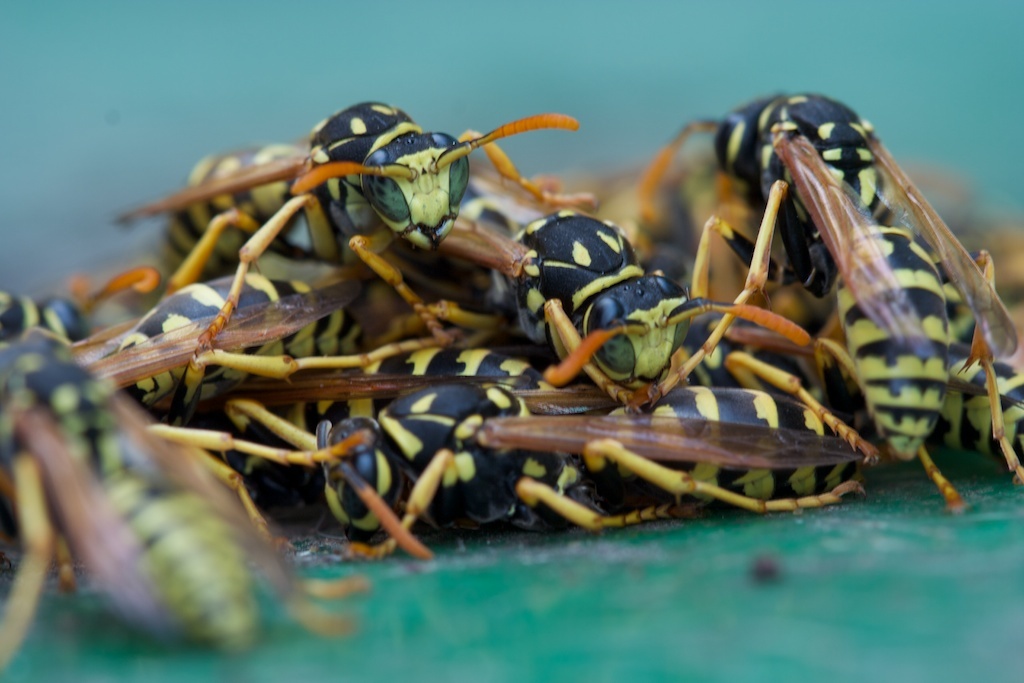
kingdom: Animalia
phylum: Arthropoda
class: Insecta
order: Hymenoptera
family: Eumenidae
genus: Polistes
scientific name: Polistes dominula
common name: Paper wasp
